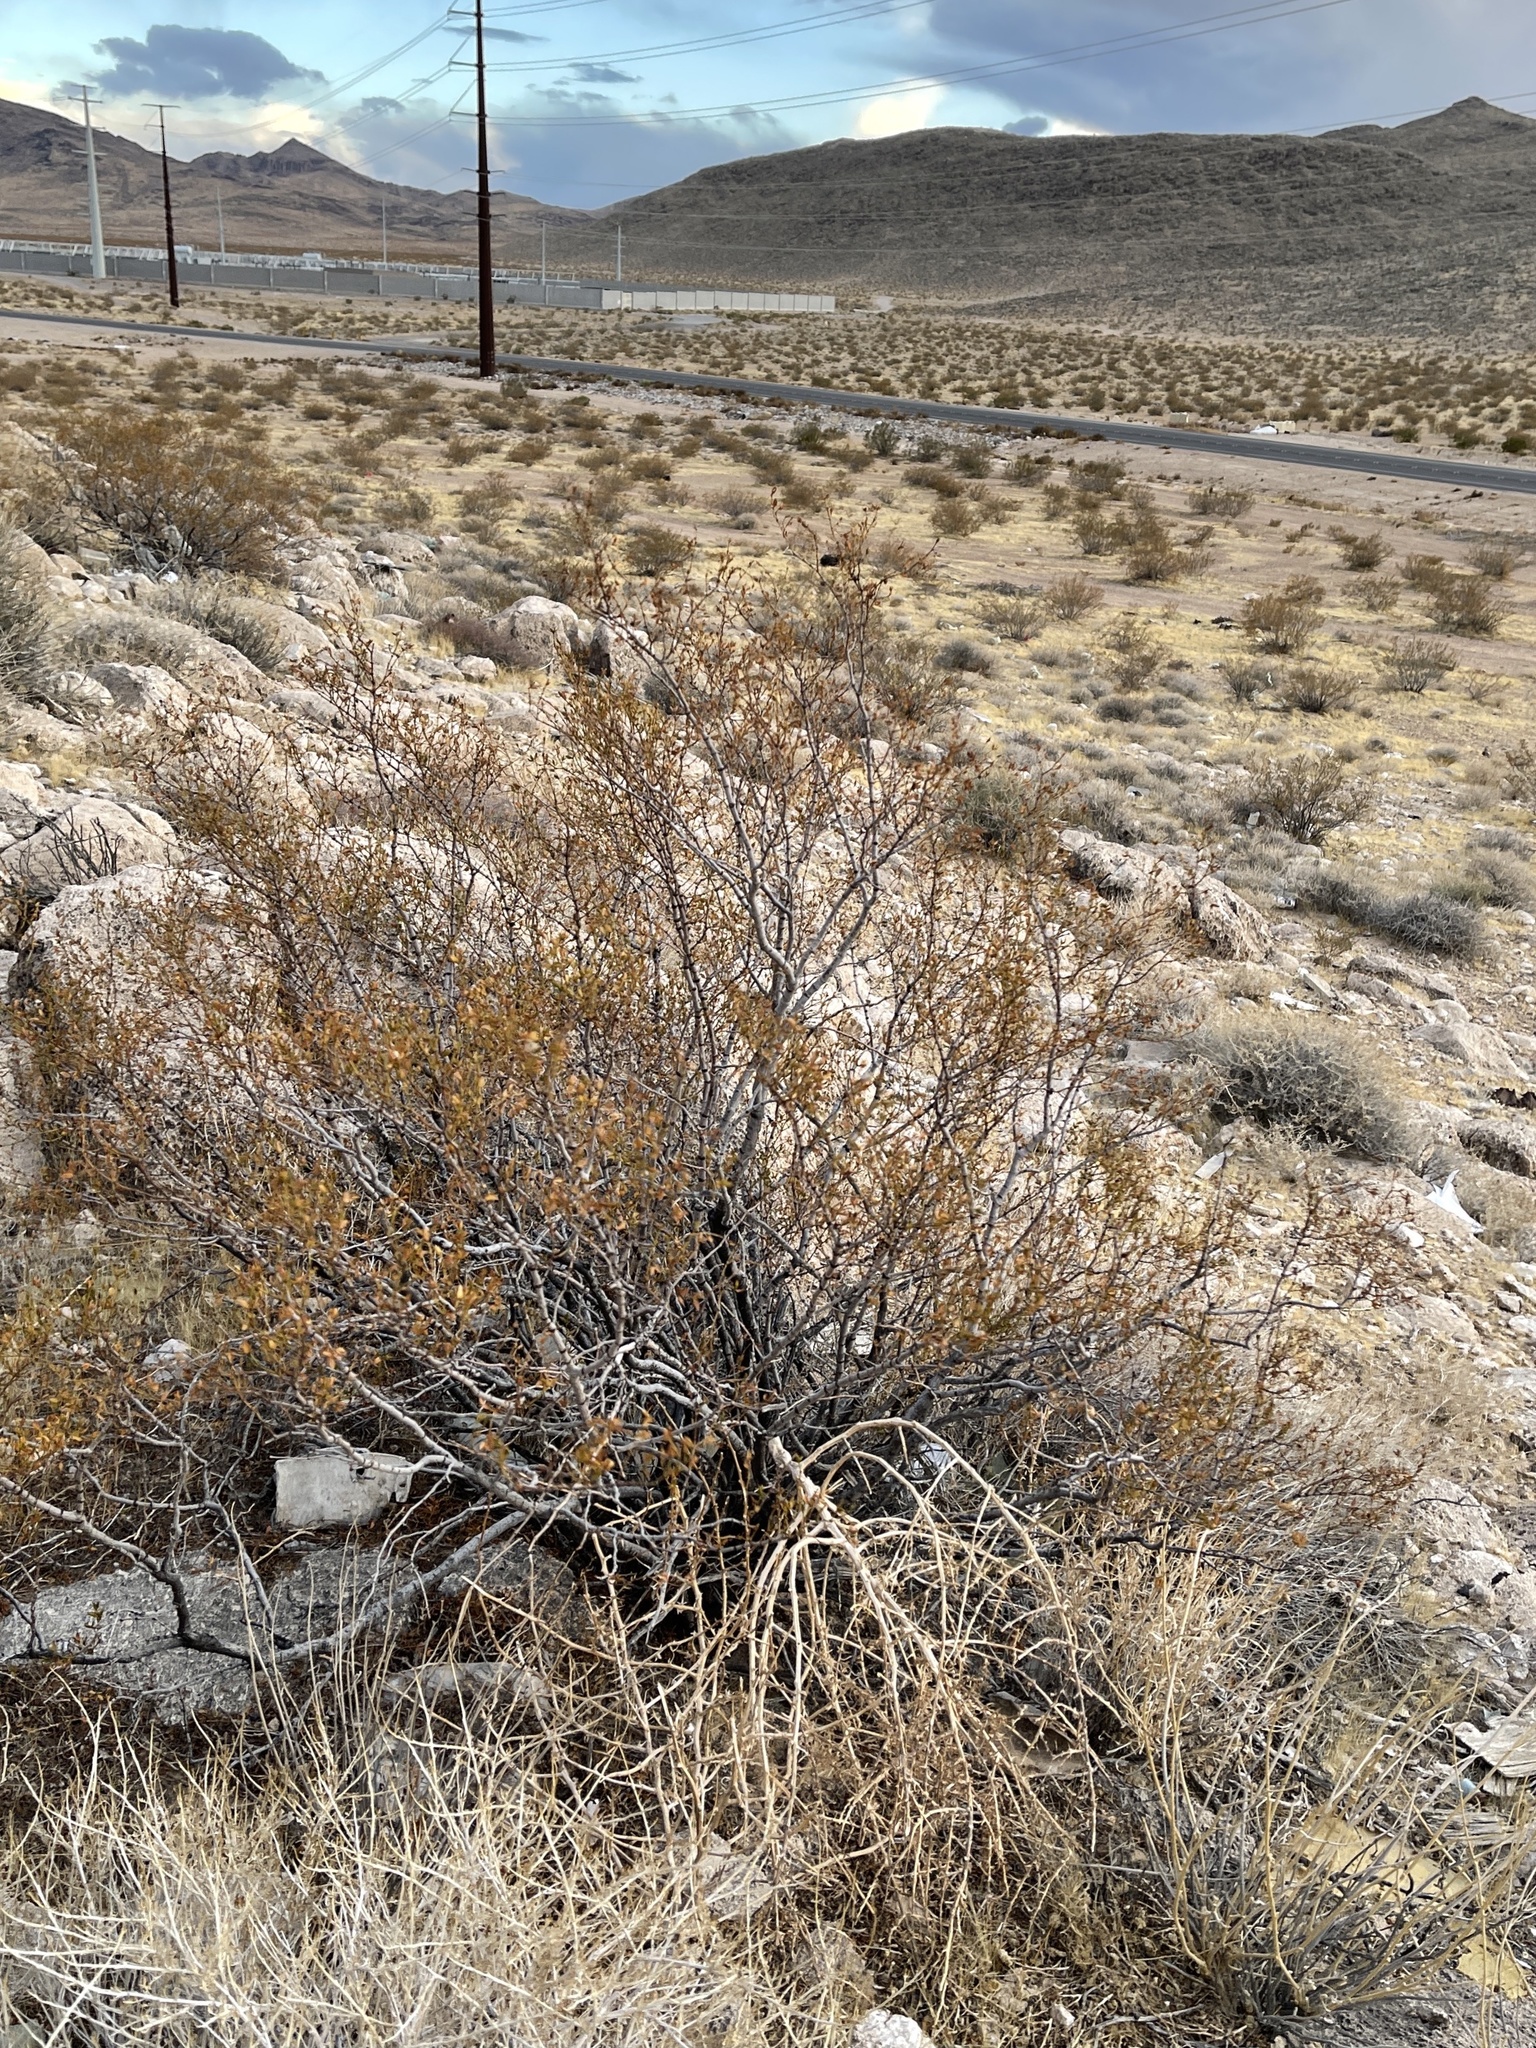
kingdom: Plantae
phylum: Tracheophyta
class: Magnoliopsida
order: Zygophyllales
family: Zygophyllaceae
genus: Larrea
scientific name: Larrea tridentata
